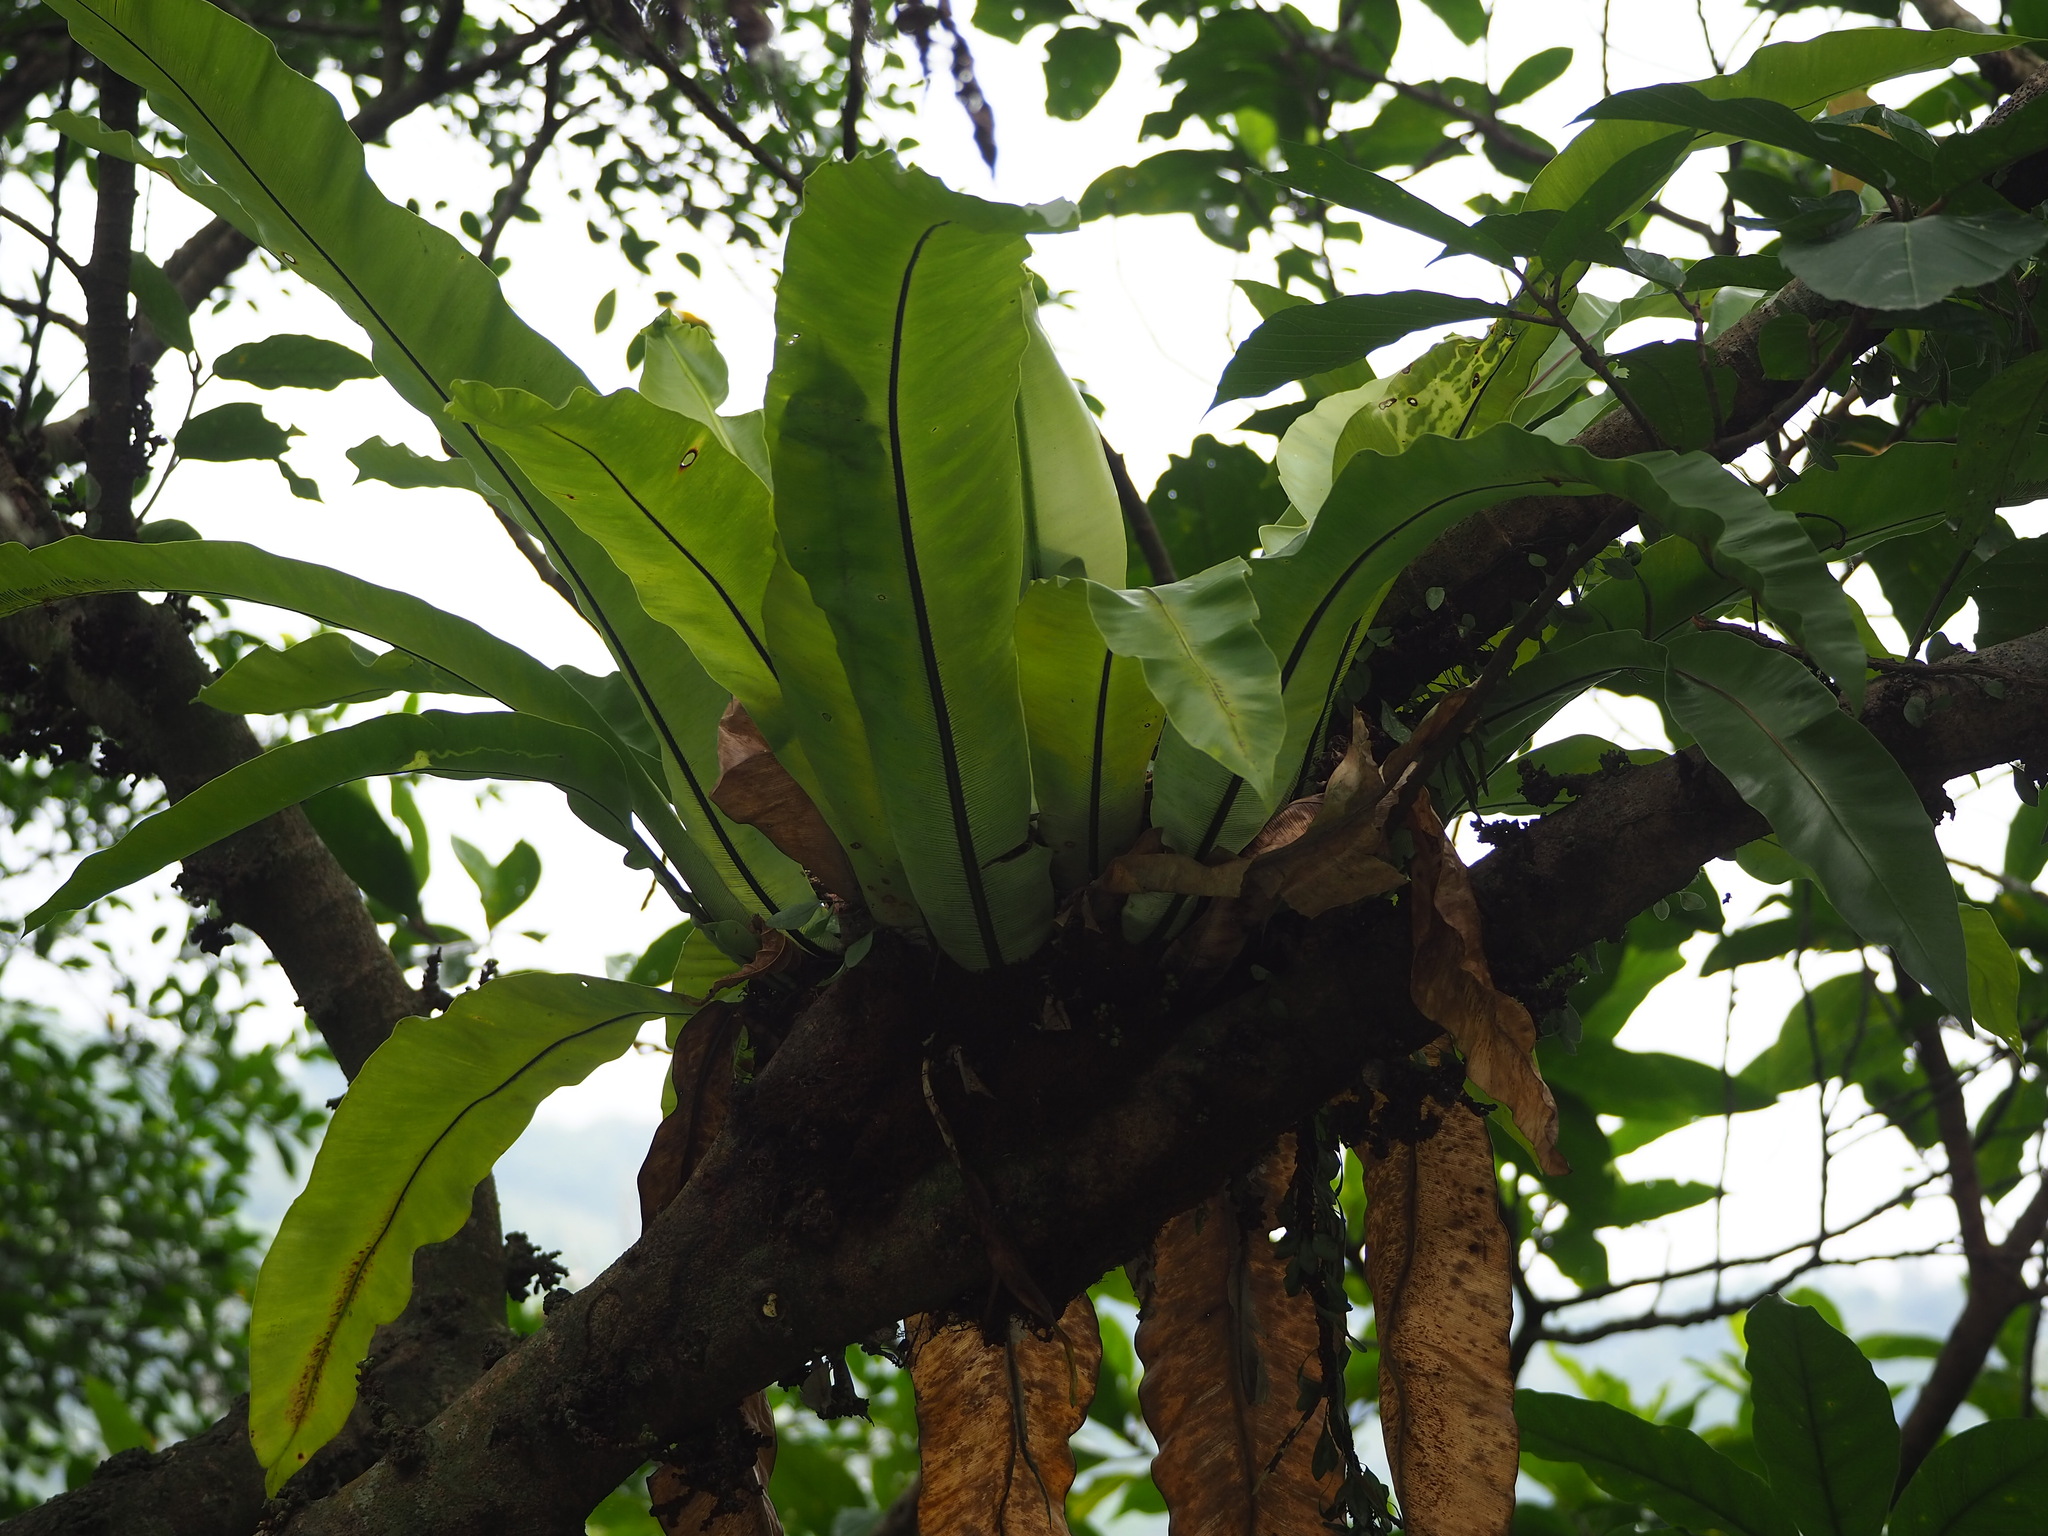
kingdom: Plantae
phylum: Tracheophyta
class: Polypodiopsida
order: Polypodiales
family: Aspleniaceae
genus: Asplenium
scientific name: Asplenium nidus
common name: Bird's-nest fern
